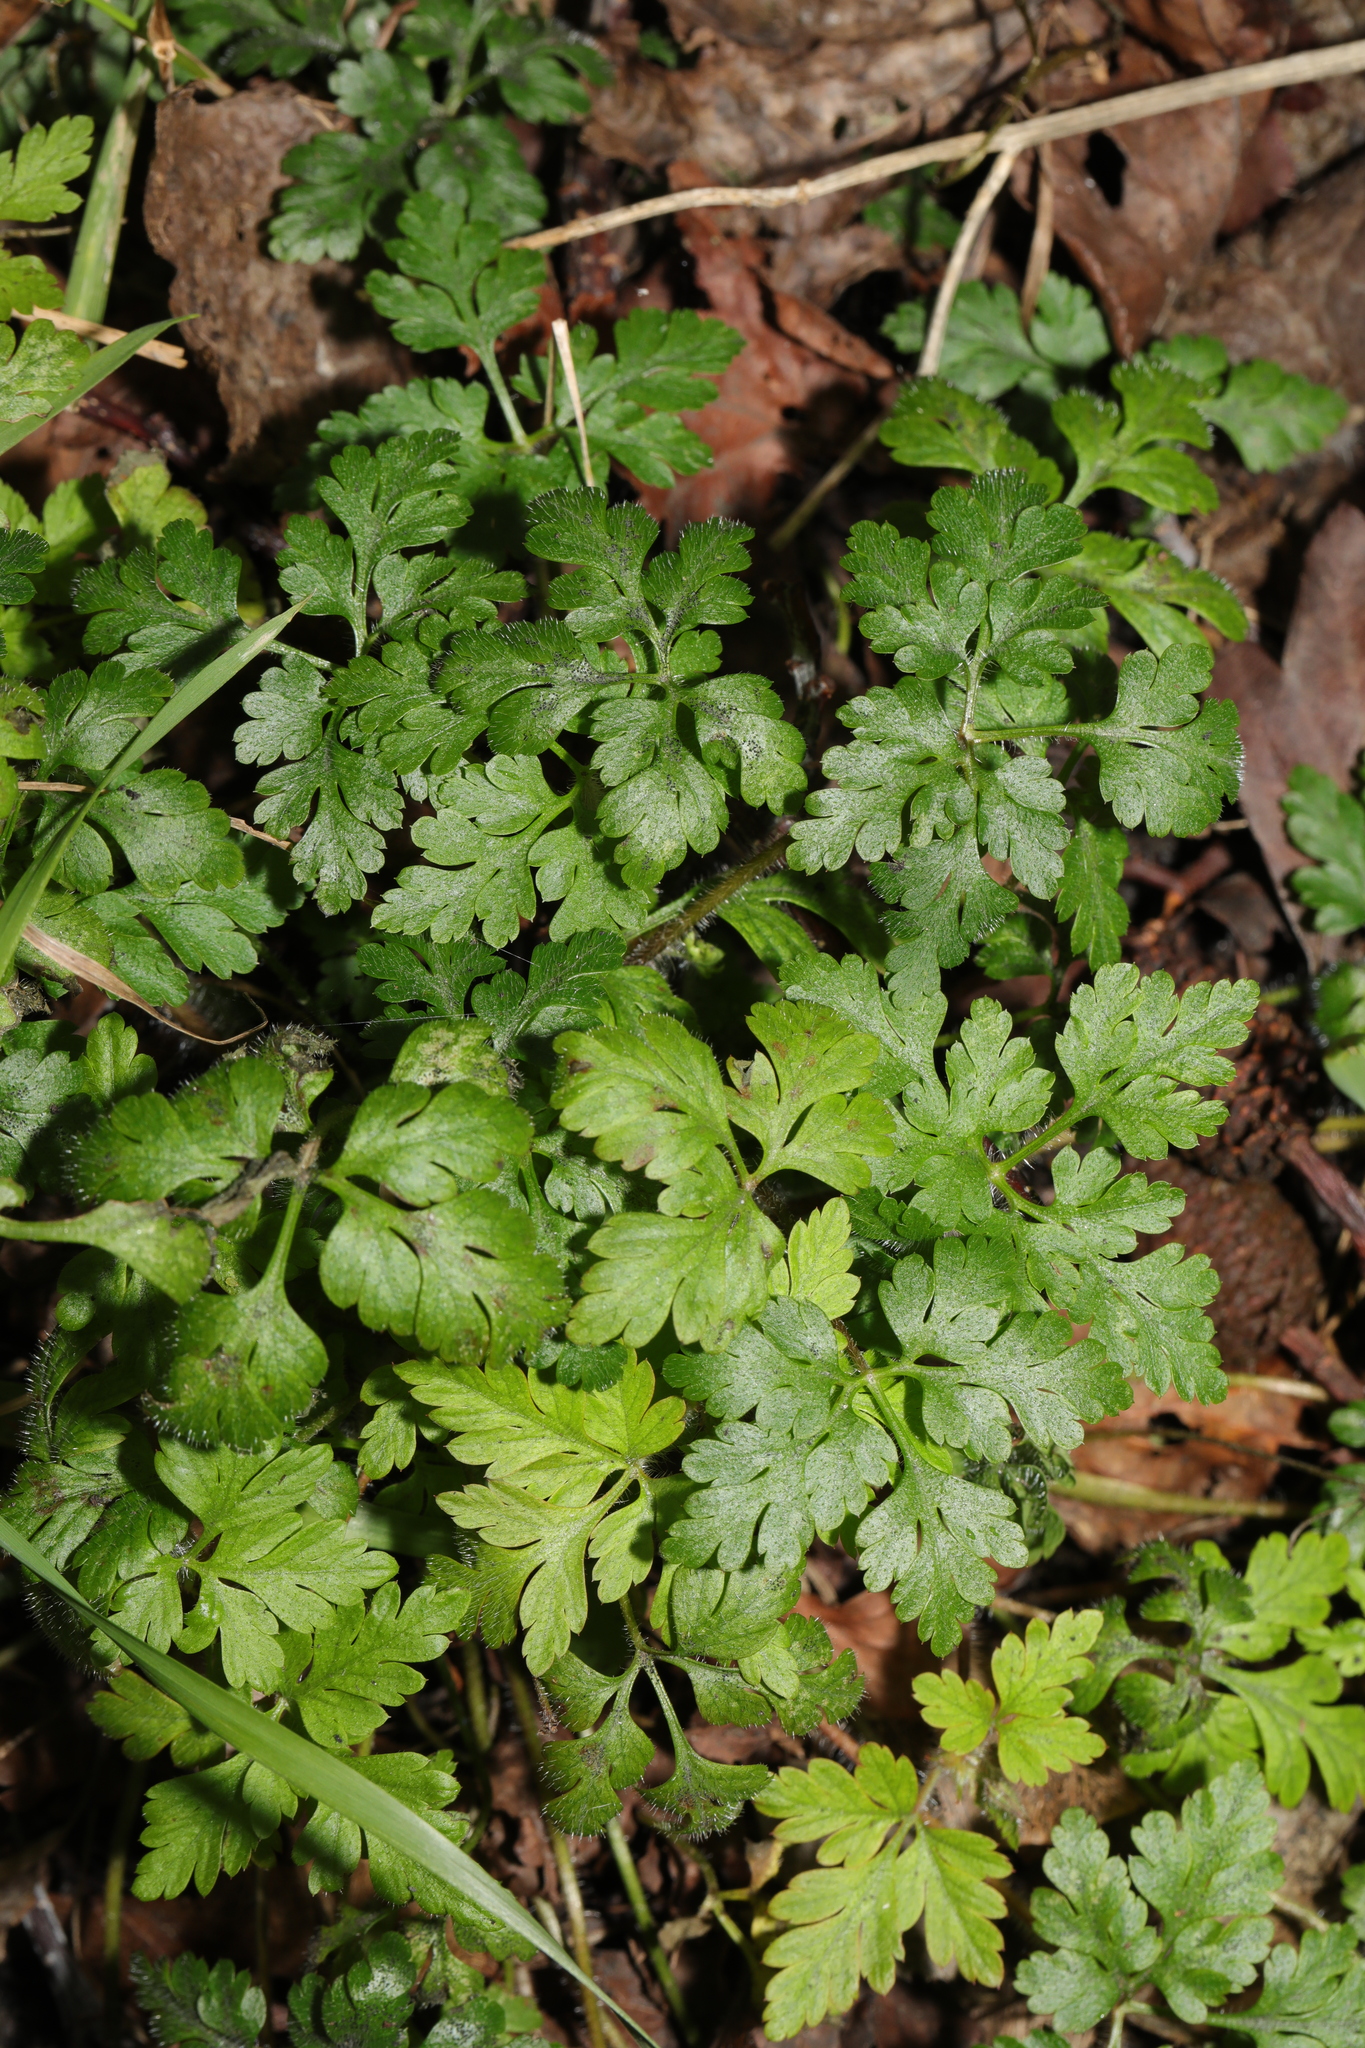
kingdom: Plantae
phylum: Tracheophyta
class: Magnoliopsida
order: Geraniales
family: Geraniaceae
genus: Geranium
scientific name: Geranium robertianum
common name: Herb-robert
